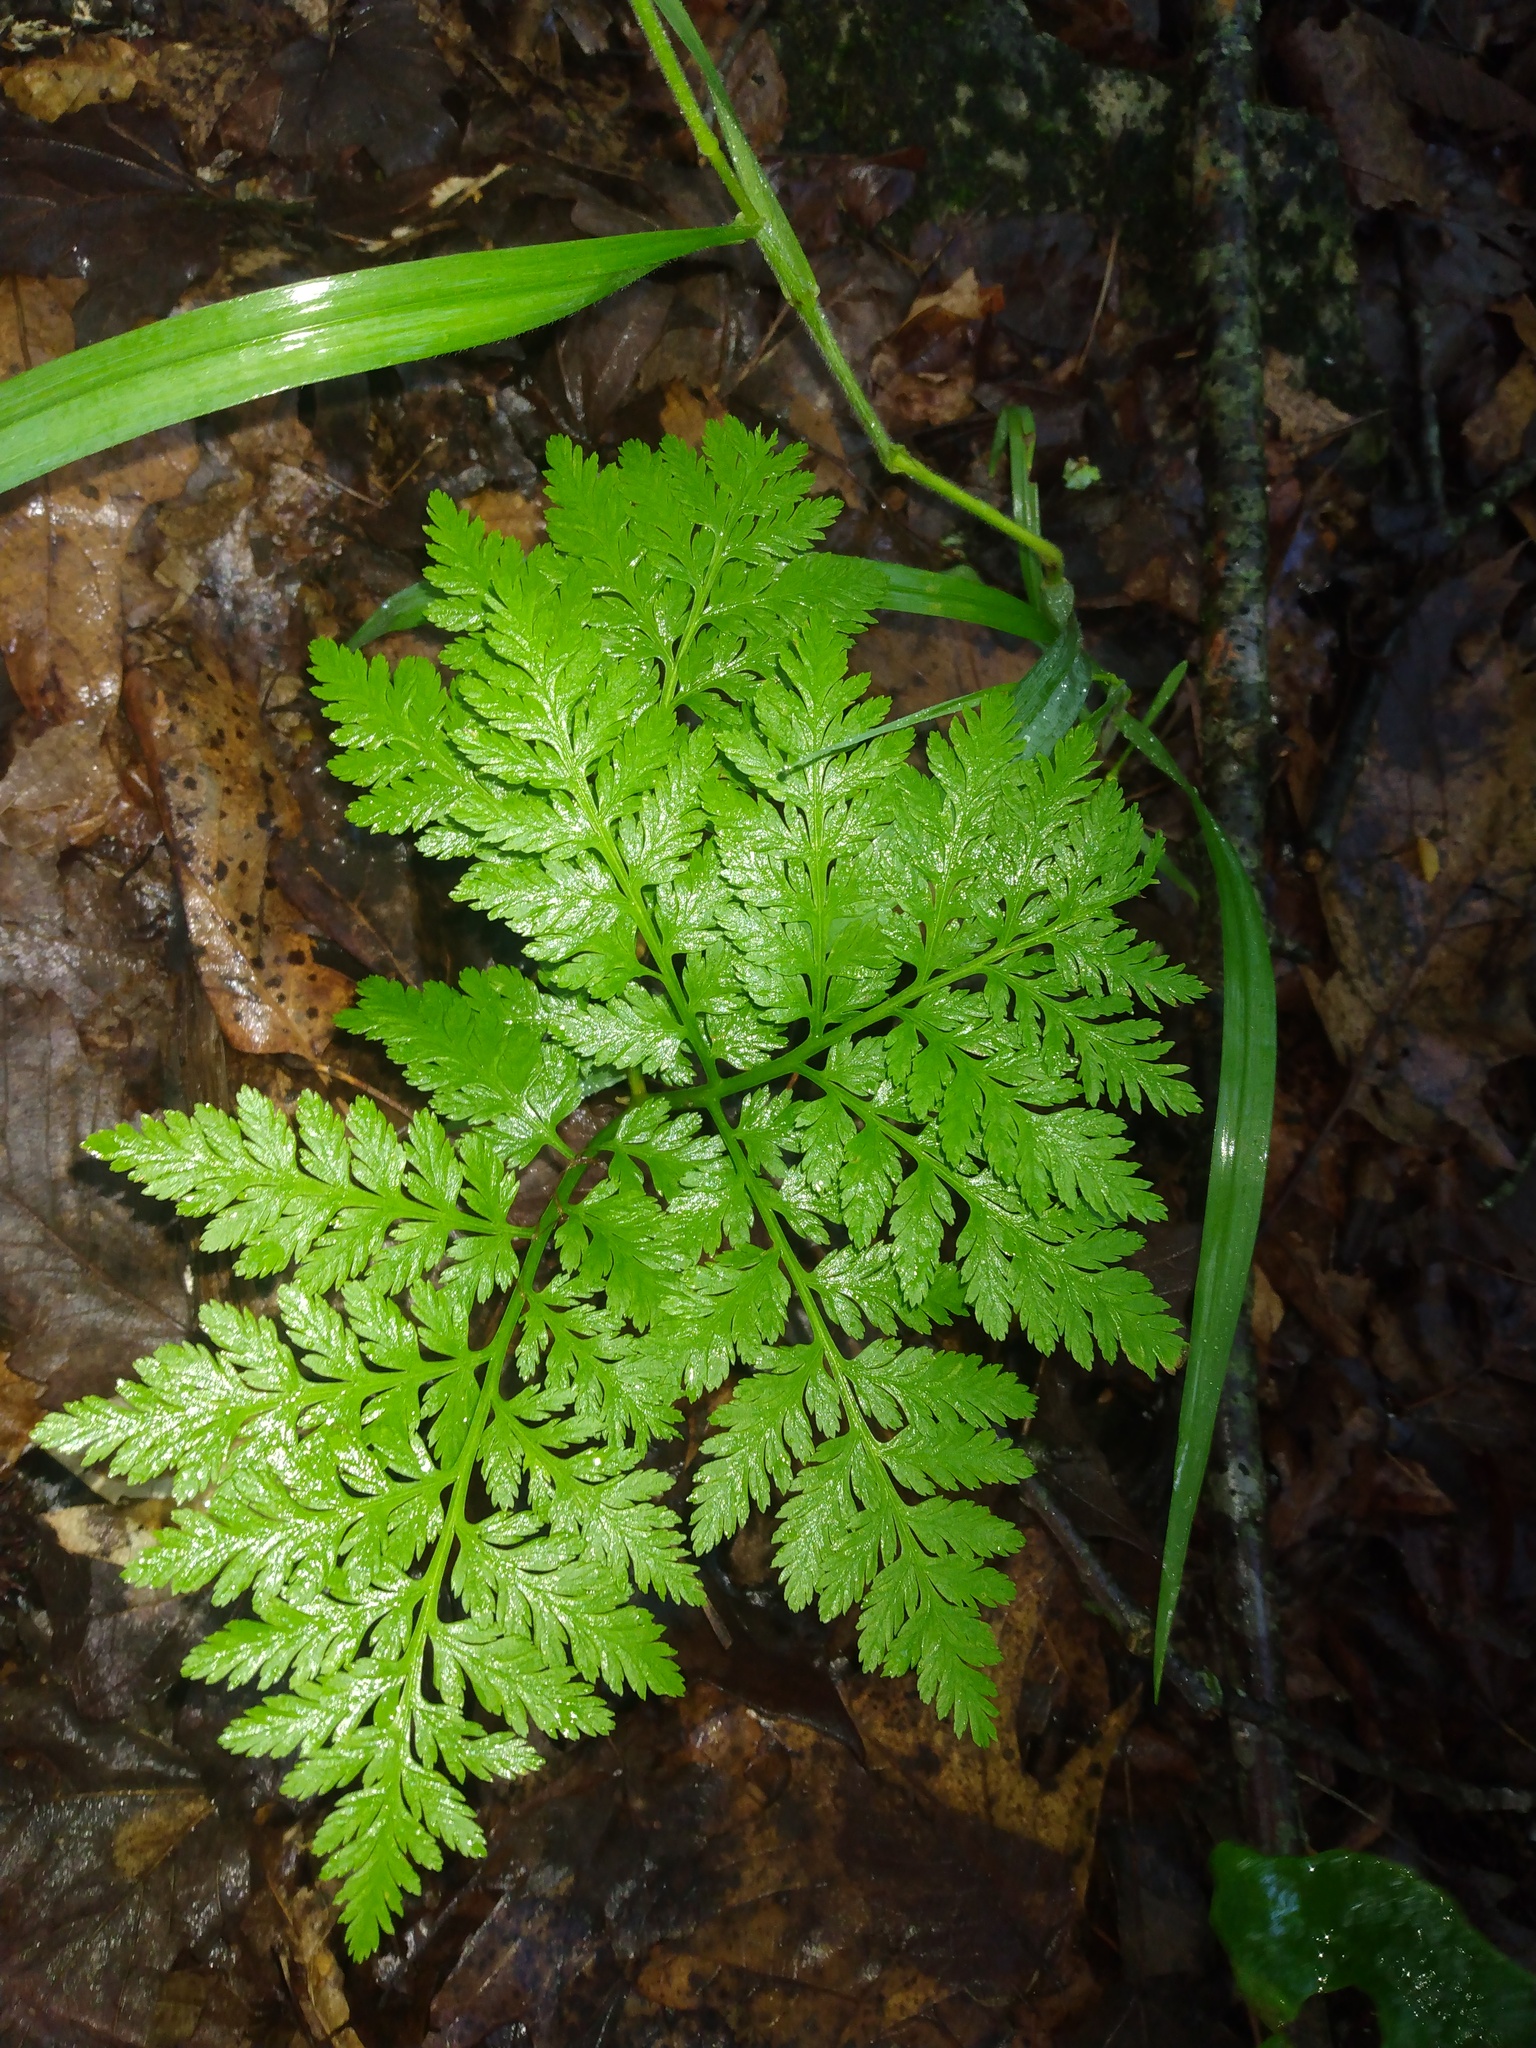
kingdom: Plantae
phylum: Tracheophyta
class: Polypodiopsida
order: Ophioglossales
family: Ophioglossaceae
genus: Botrypus
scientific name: Botrypus virginianus
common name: Common grapefern
